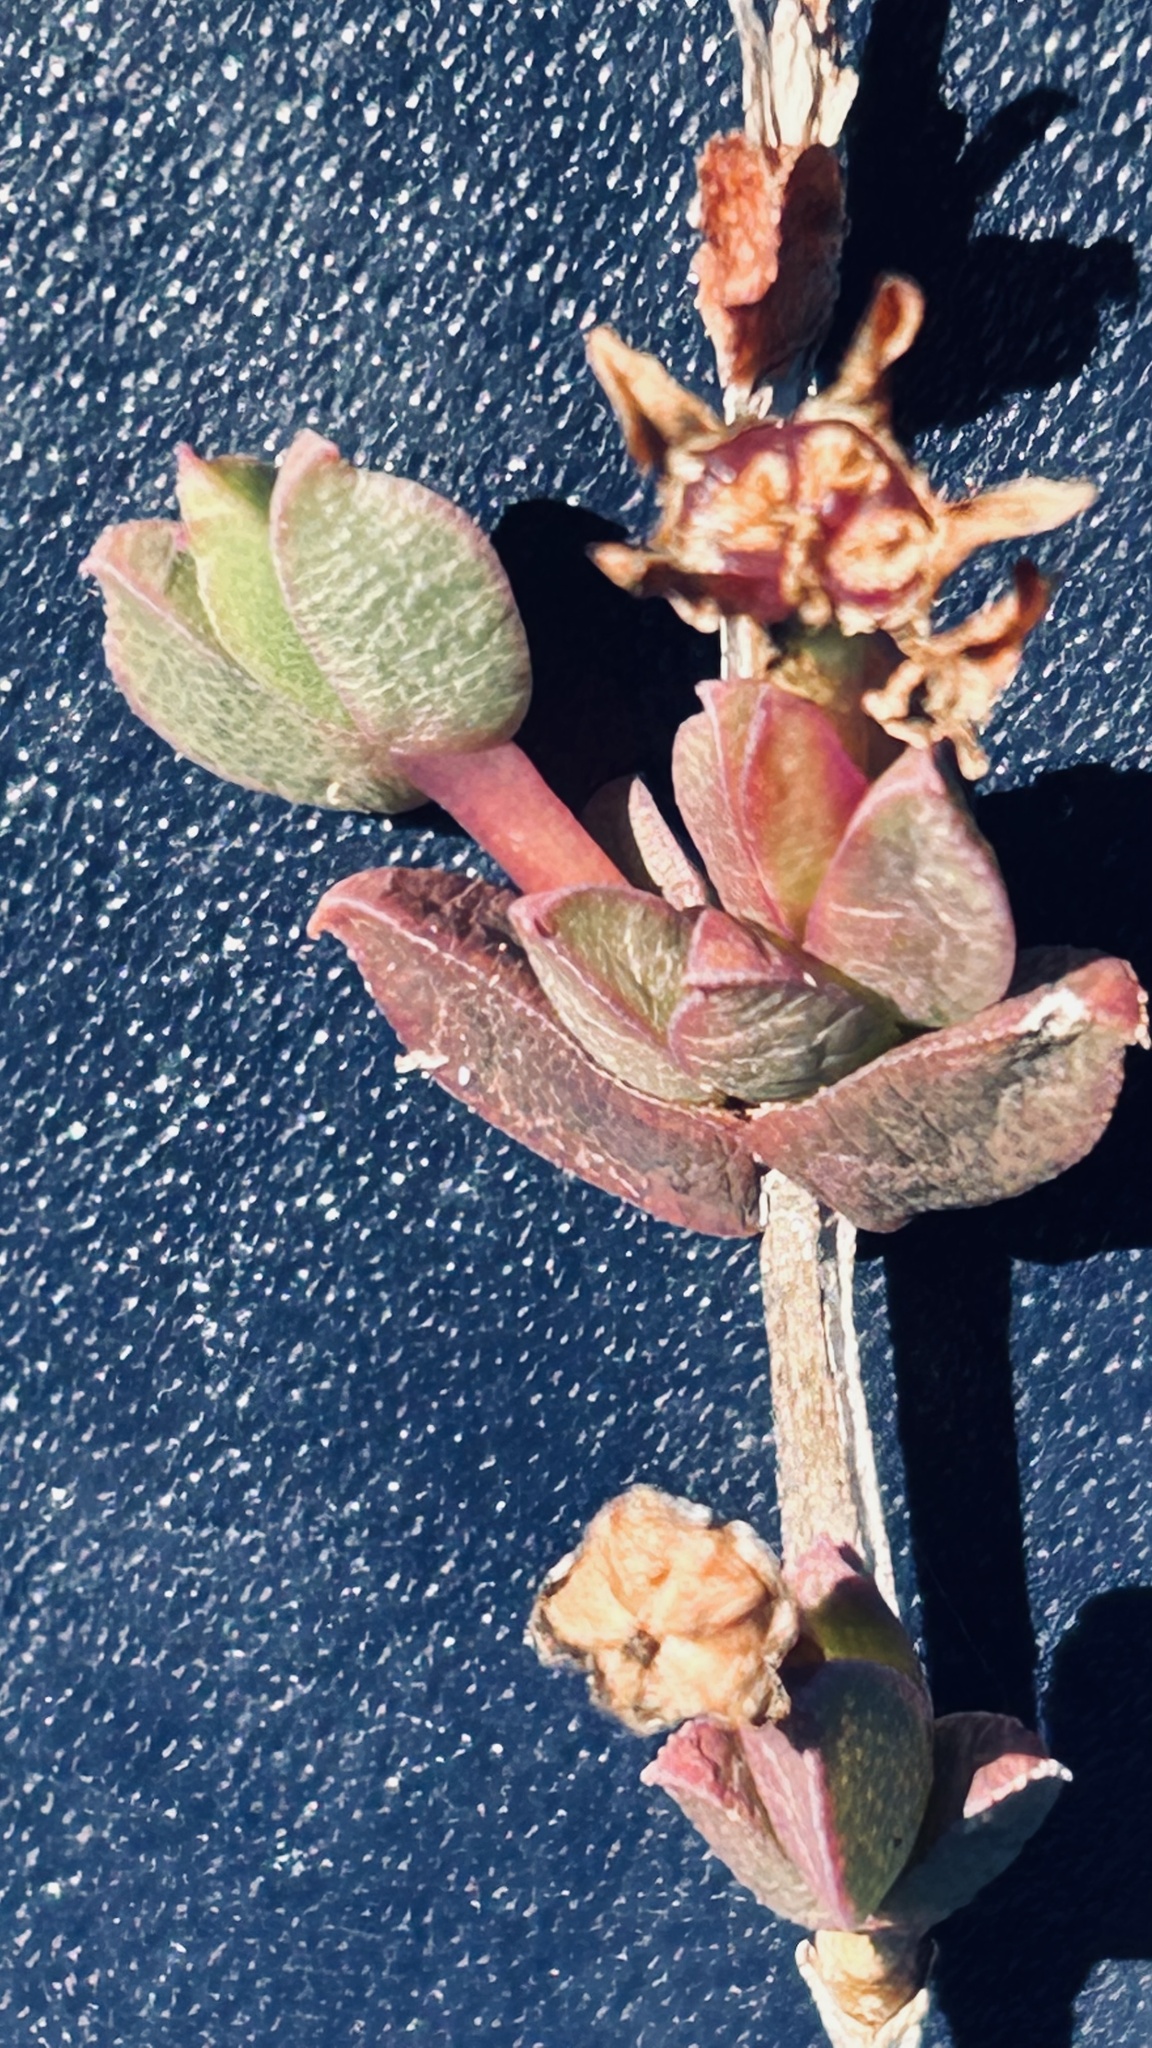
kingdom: Plantae
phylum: Tracheophyta
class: Magnoliopsida
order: Caryophyllales
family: Aizoaceae
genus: Ruschia
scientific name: Ruschia leptocalyx
